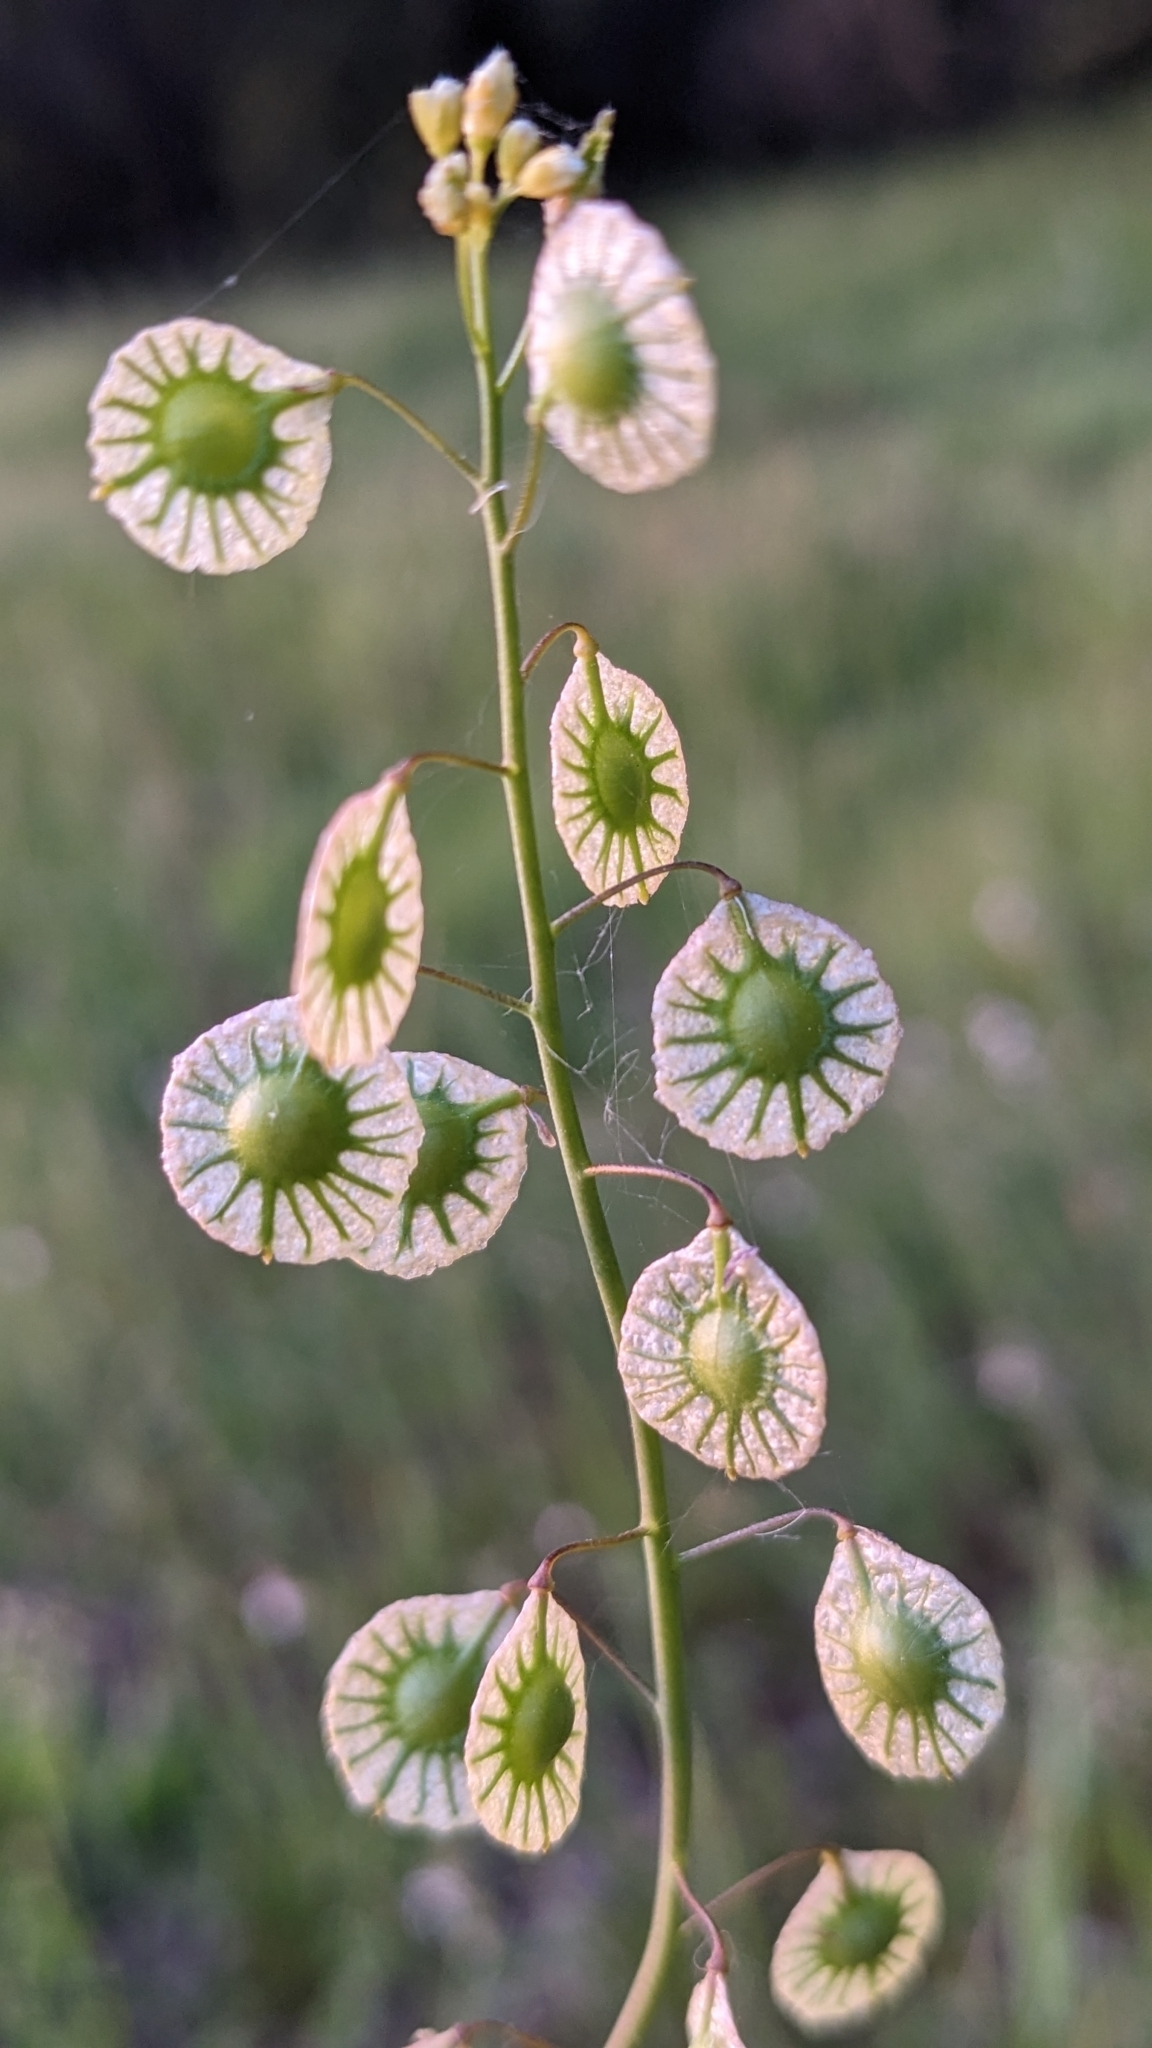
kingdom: Plantae
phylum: Tracheophyta
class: Magnoliopsida
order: Brassicales
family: Brassicaceae
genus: Thysanocarpus
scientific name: Thysanocarpus radians
